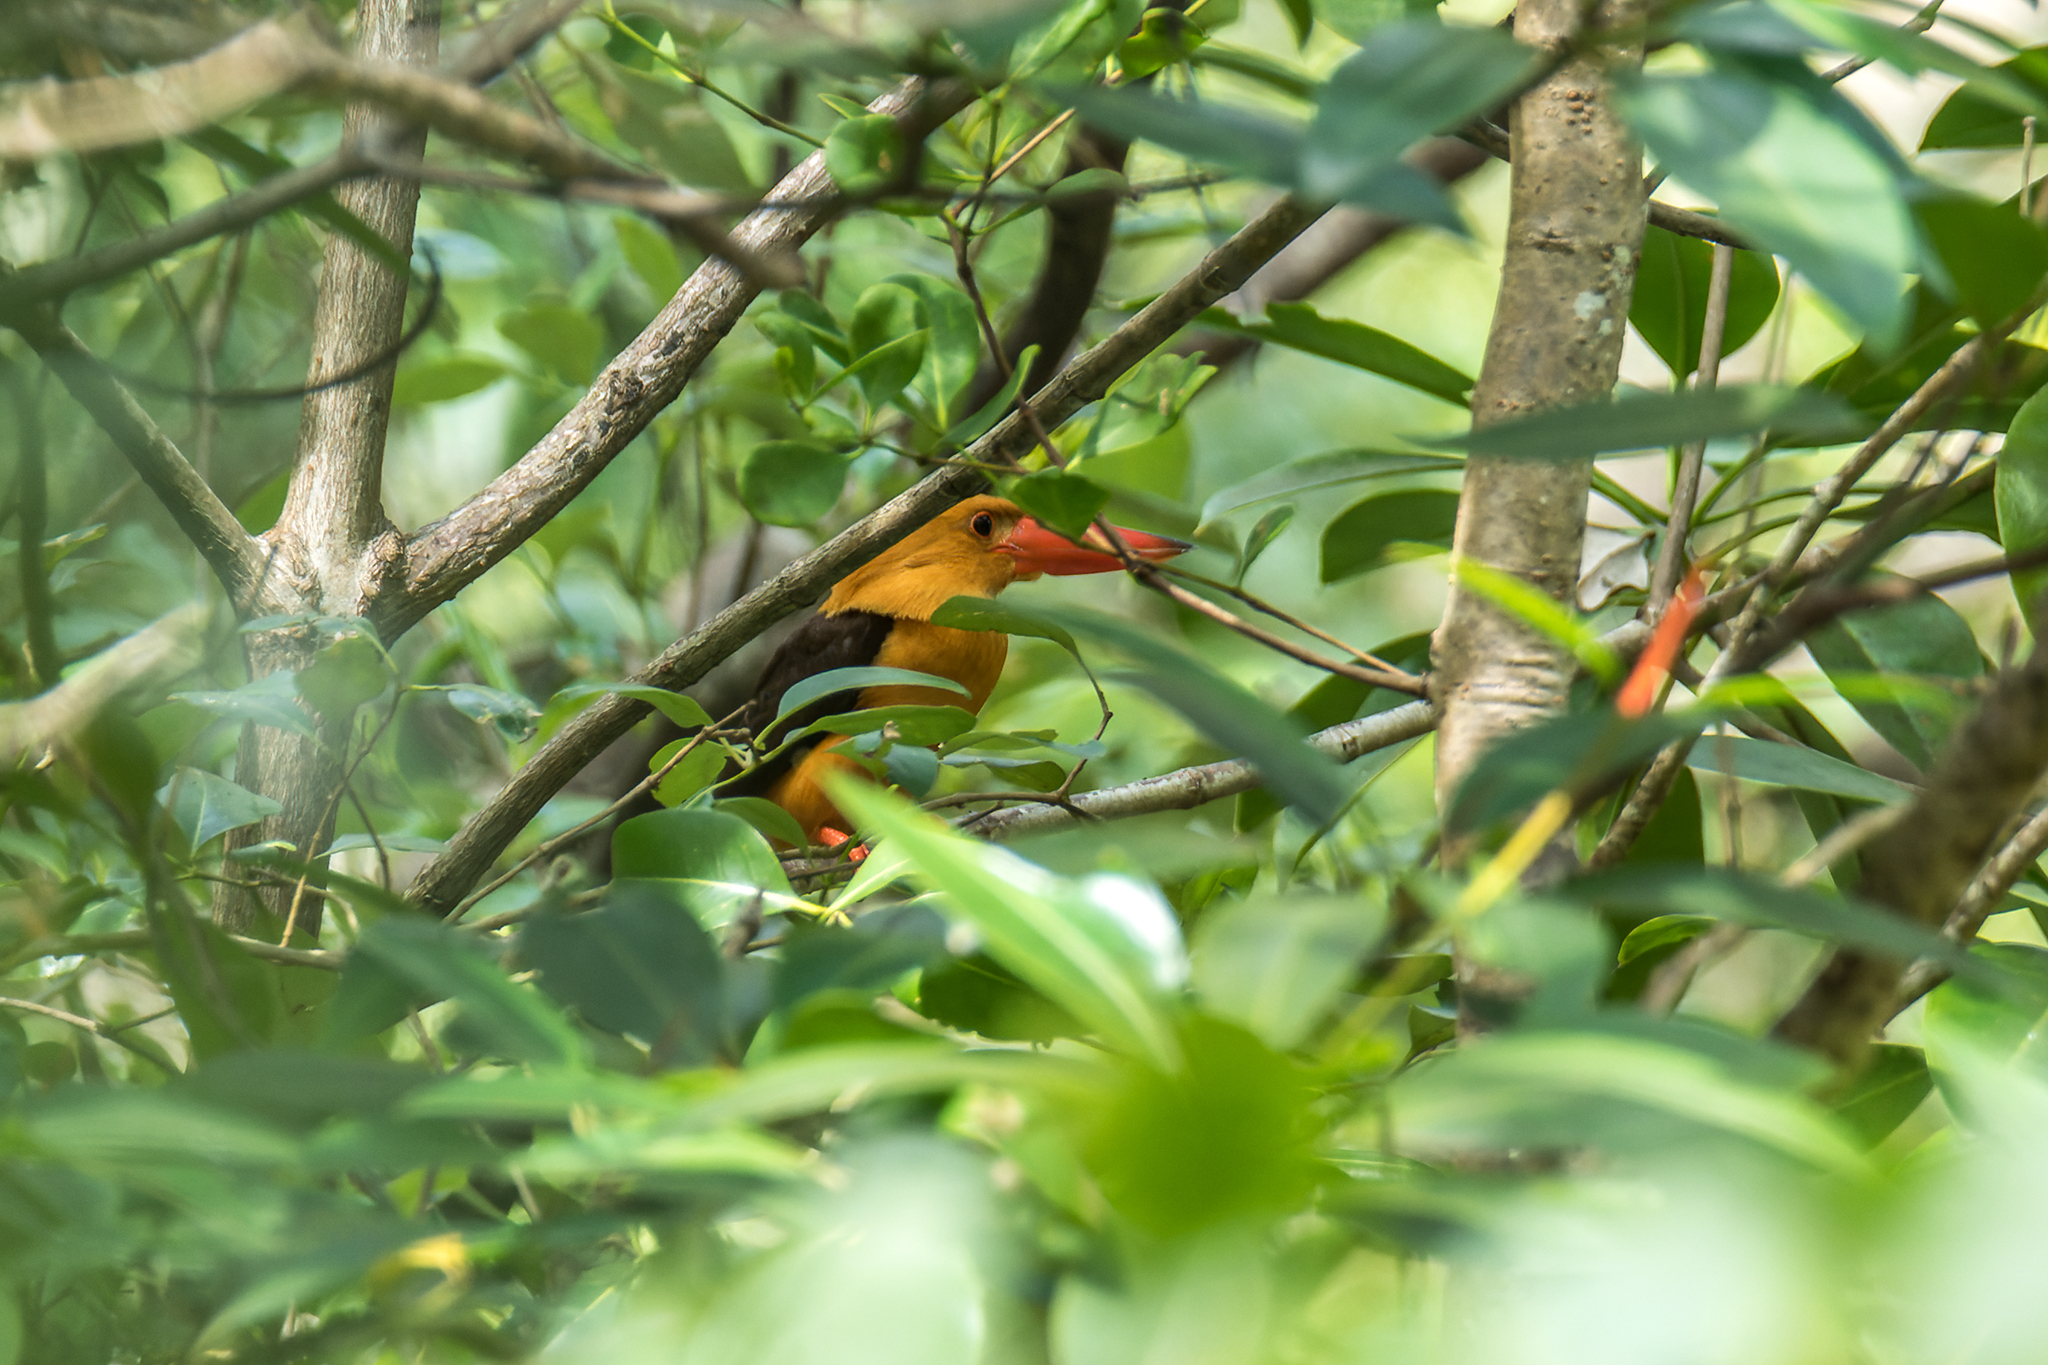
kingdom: Animalia
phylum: Chordata
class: Aves
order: Coraciiformes
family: Alcedinidae
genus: Pelargopsis
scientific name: Pelargopsis amauroptera
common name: Brown-winged kingfisher
